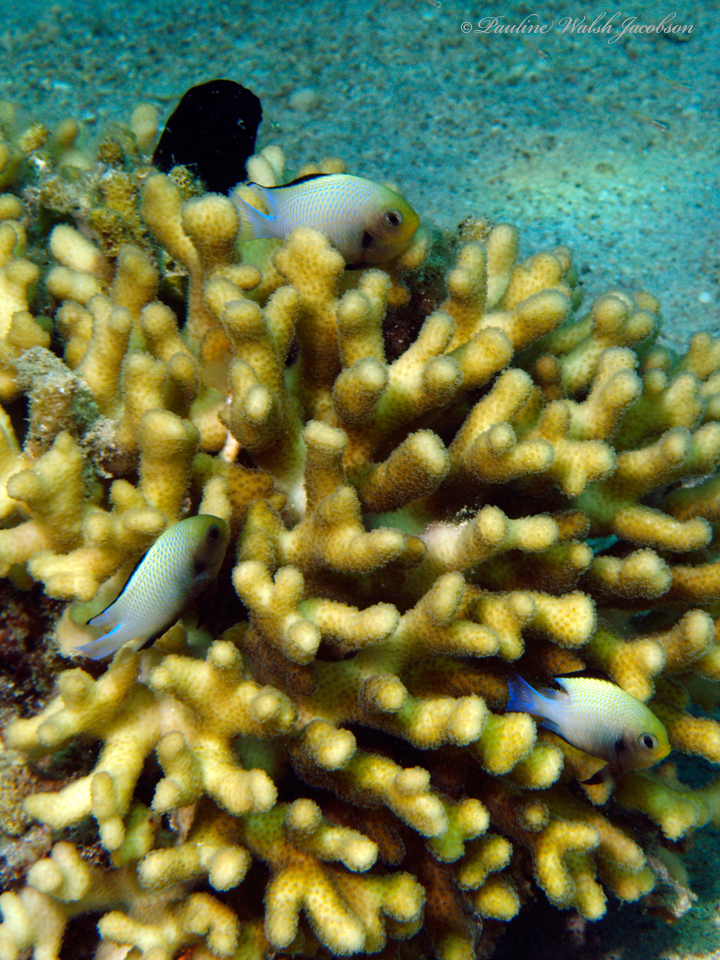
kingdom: Animalia
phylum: Chordata
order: Perciformes
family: Pomacentridae
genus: Dascyllus
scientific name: Dascyllus marginatus
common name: Red sea dascyllus
